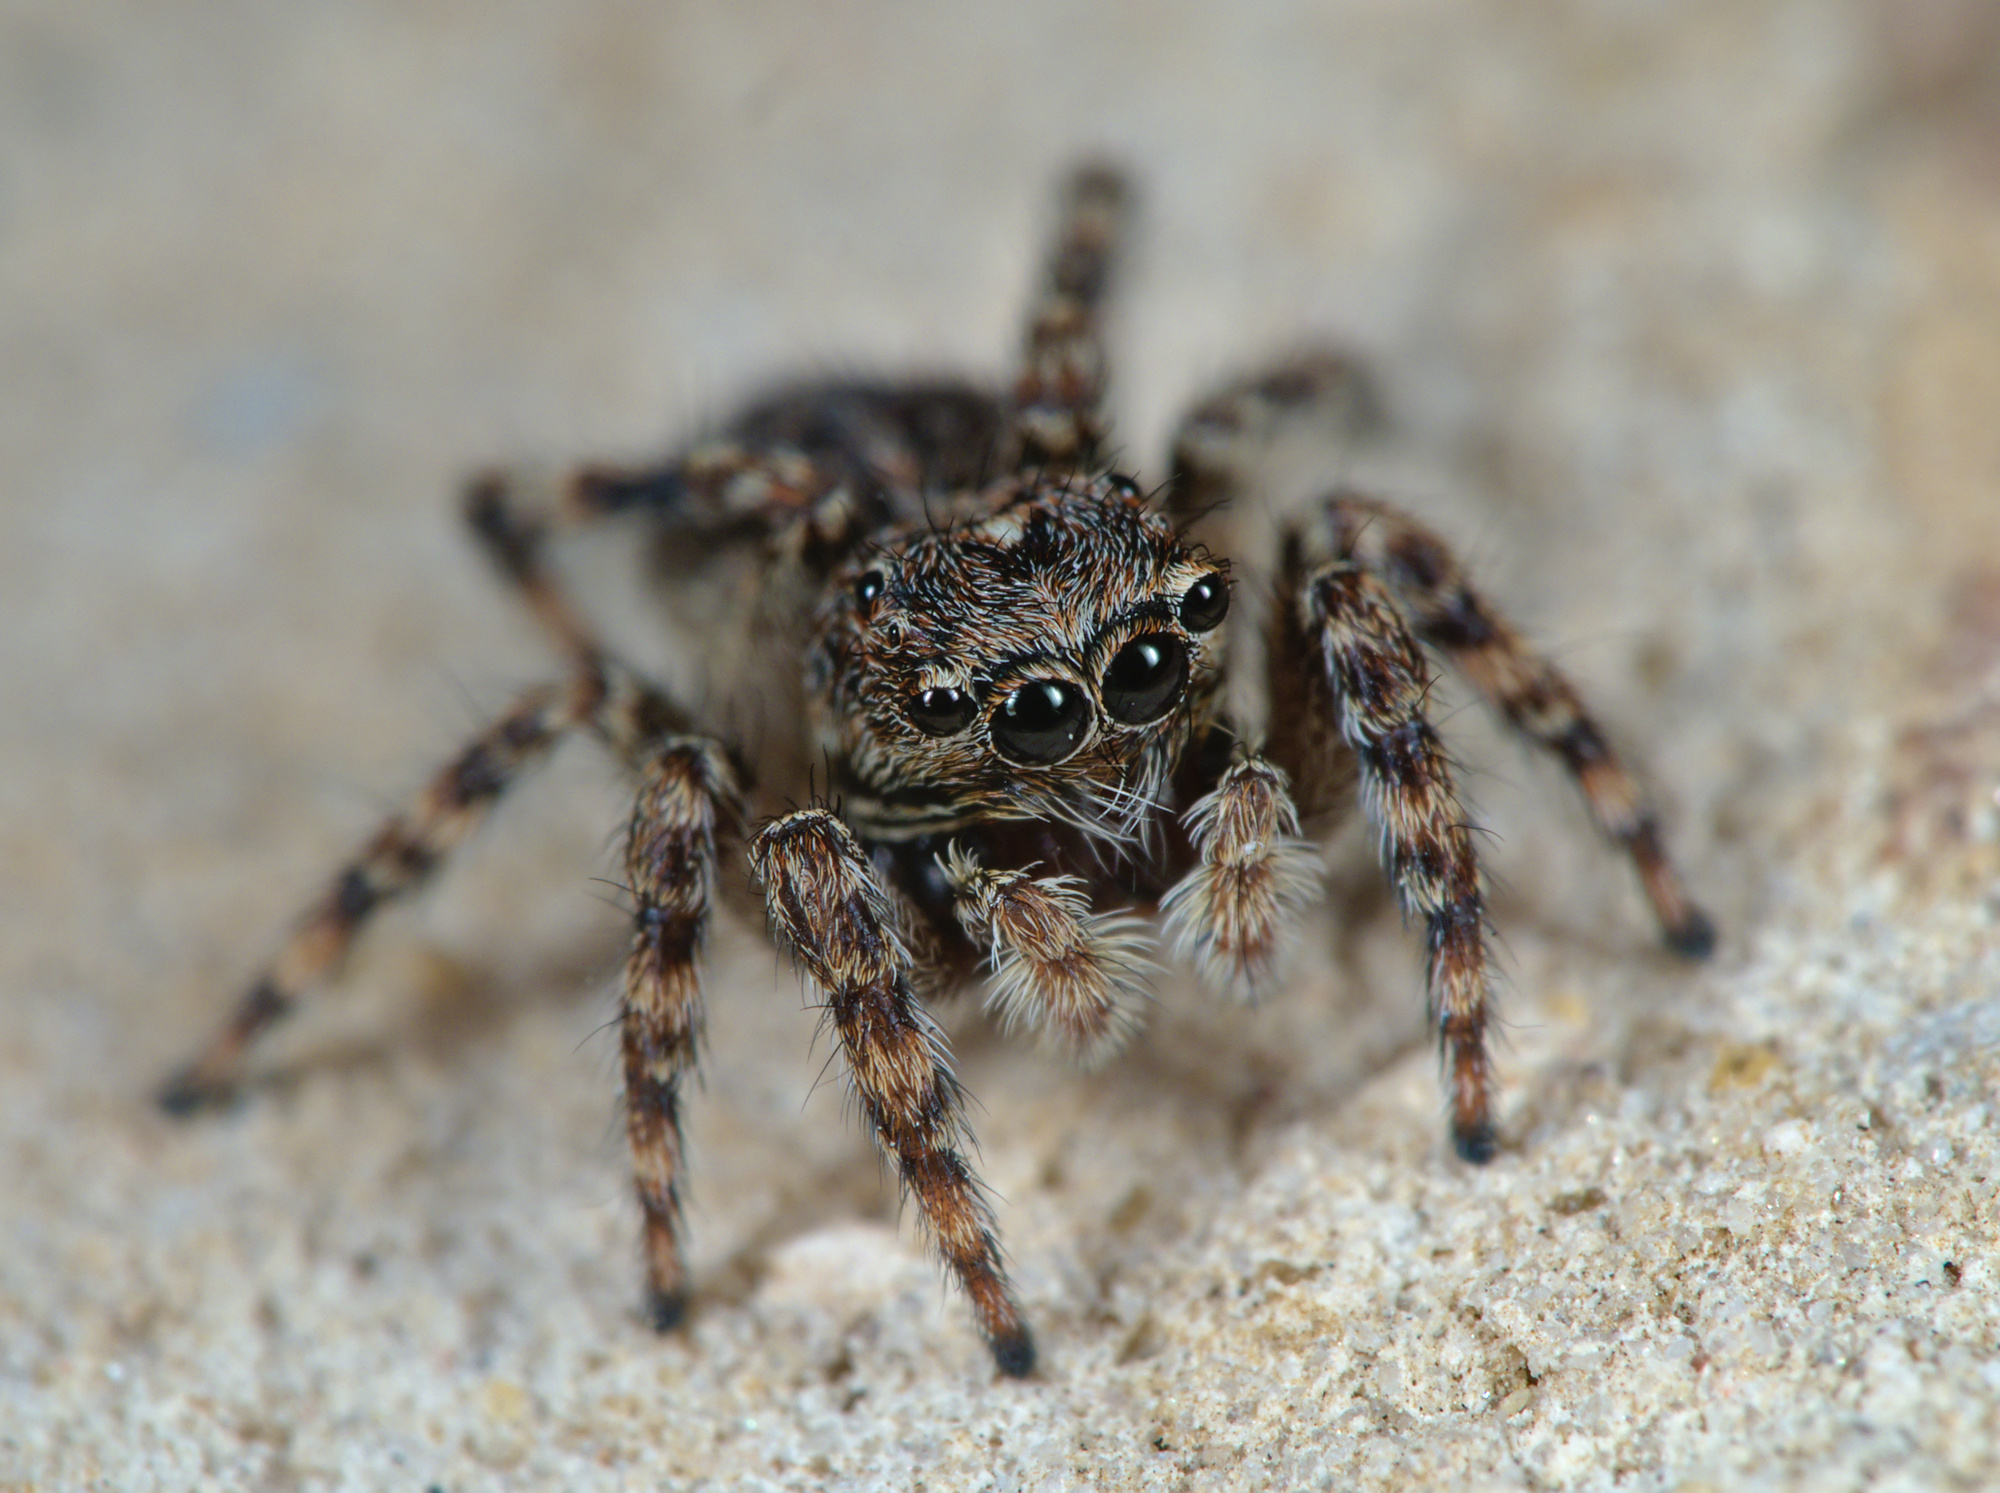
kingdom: Animalia
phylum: Arthropoda
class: Arachnida
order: Araneae
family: Salticidae
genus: Attulus
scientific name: Attulus pubescens
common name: Jumping spider
